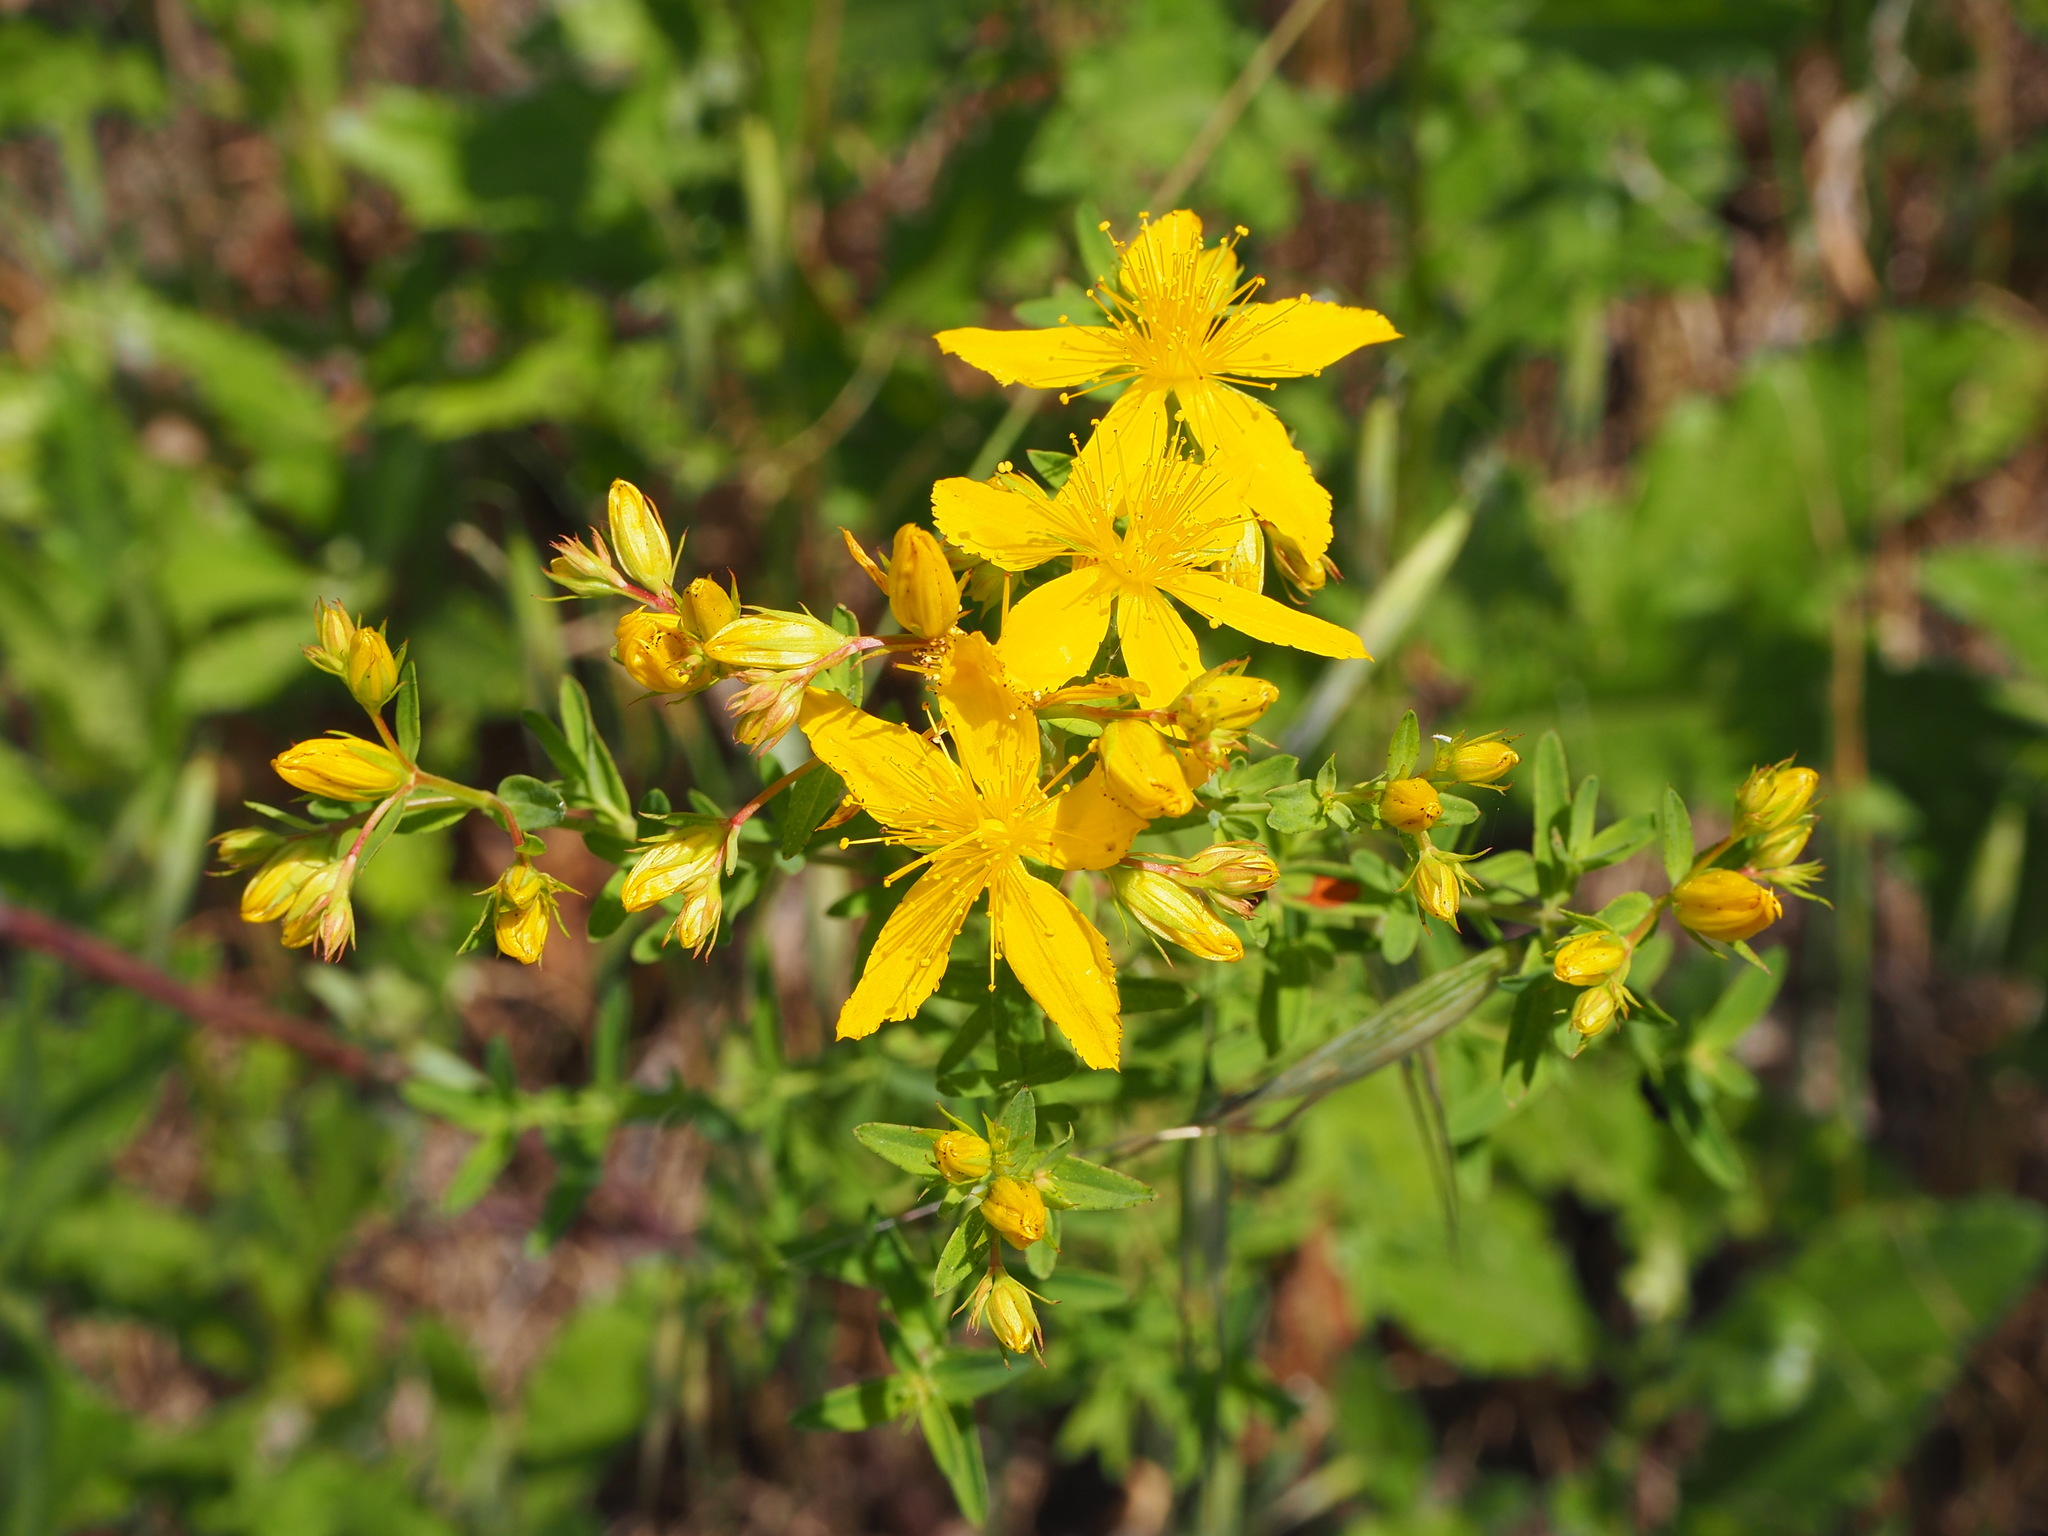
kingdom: Plantae
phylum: Tracheophyta
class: Magnoliopsida
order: Malpighiales
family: Hypericaceae
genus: Hypericum
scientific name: Hypericum perforatum
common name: Common st. johnswort
